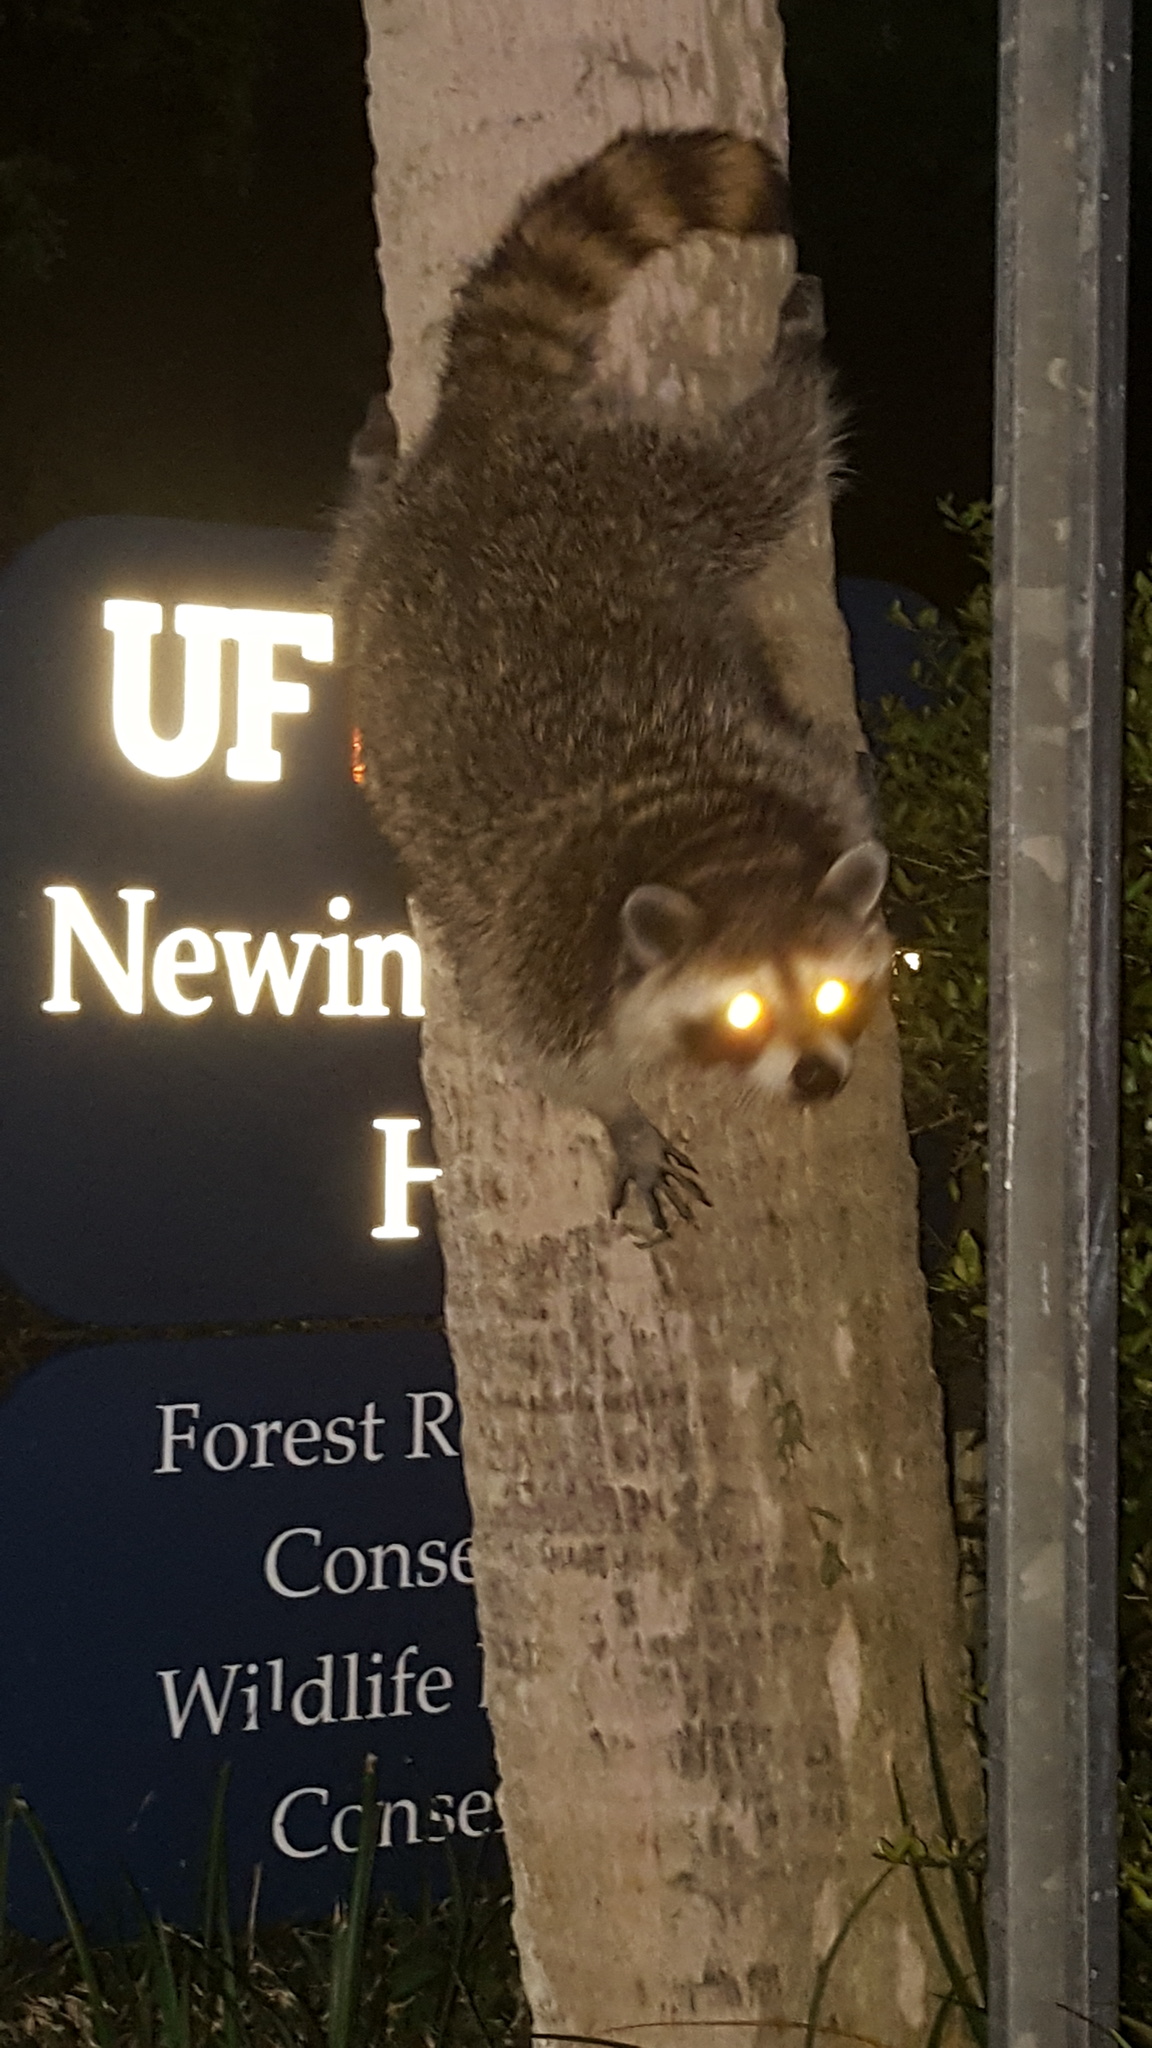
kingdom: Animalia
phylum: Chordata
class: Mammalia
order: Carnivora
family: Procyonidae
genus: Procyon
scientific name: Procyon lotor
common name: Raccoon
